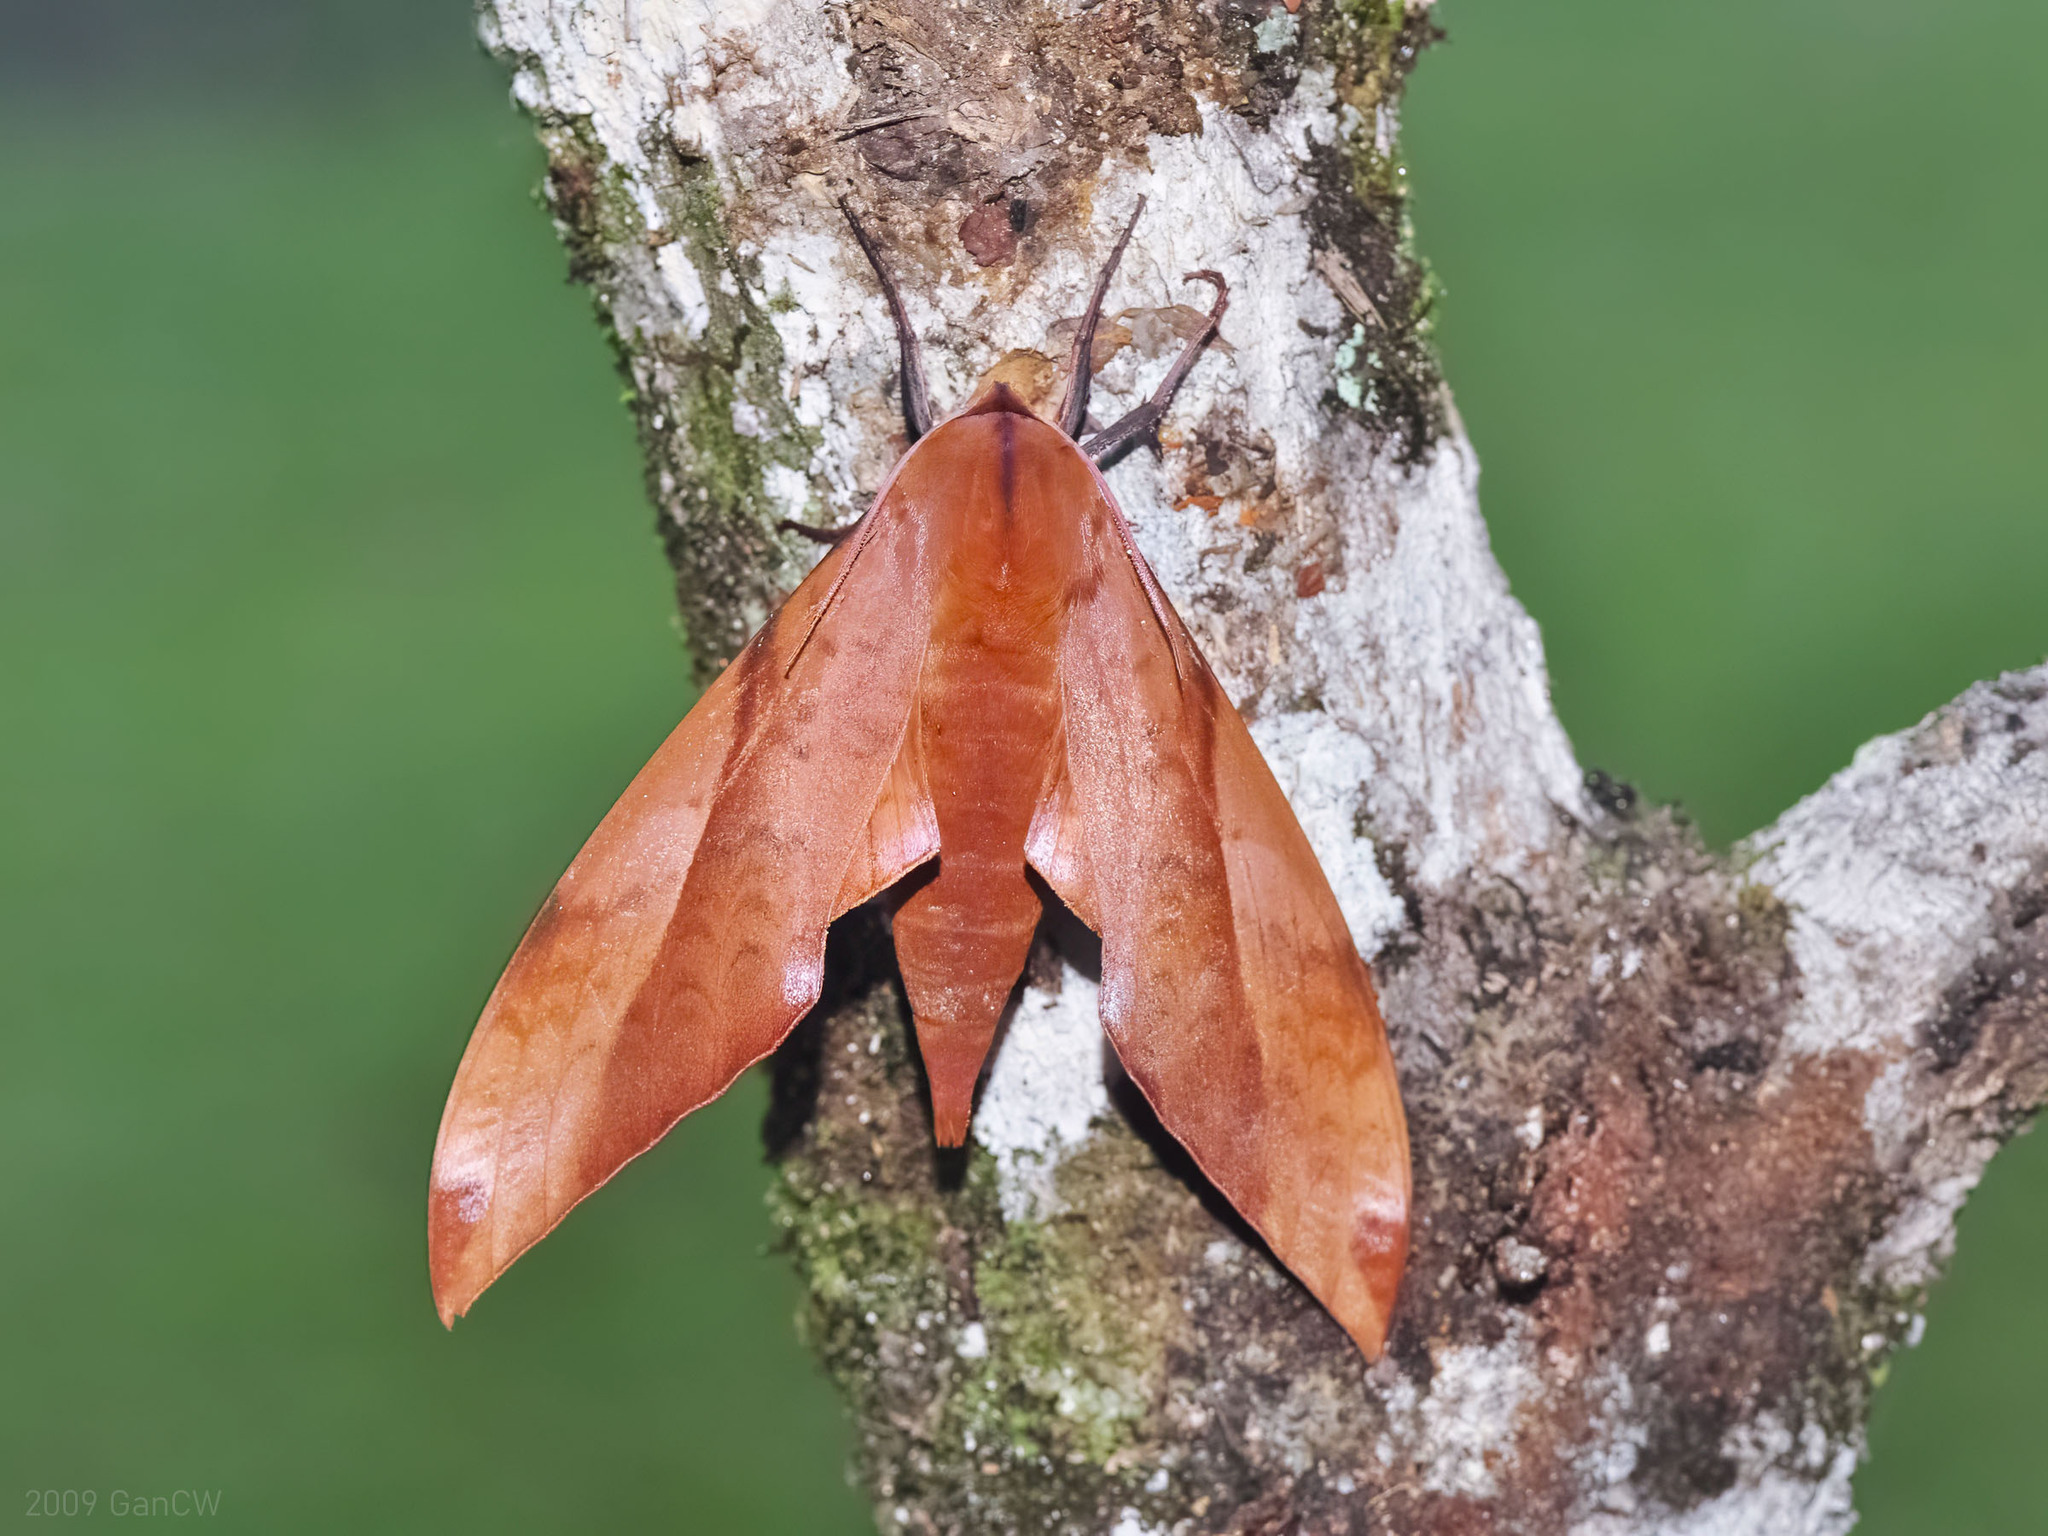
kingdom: Animalia
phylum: Arthropoda
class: Insecta
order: Lepidoptera
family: Sphingidae
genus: Clanis
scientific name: Clanis undulosa
